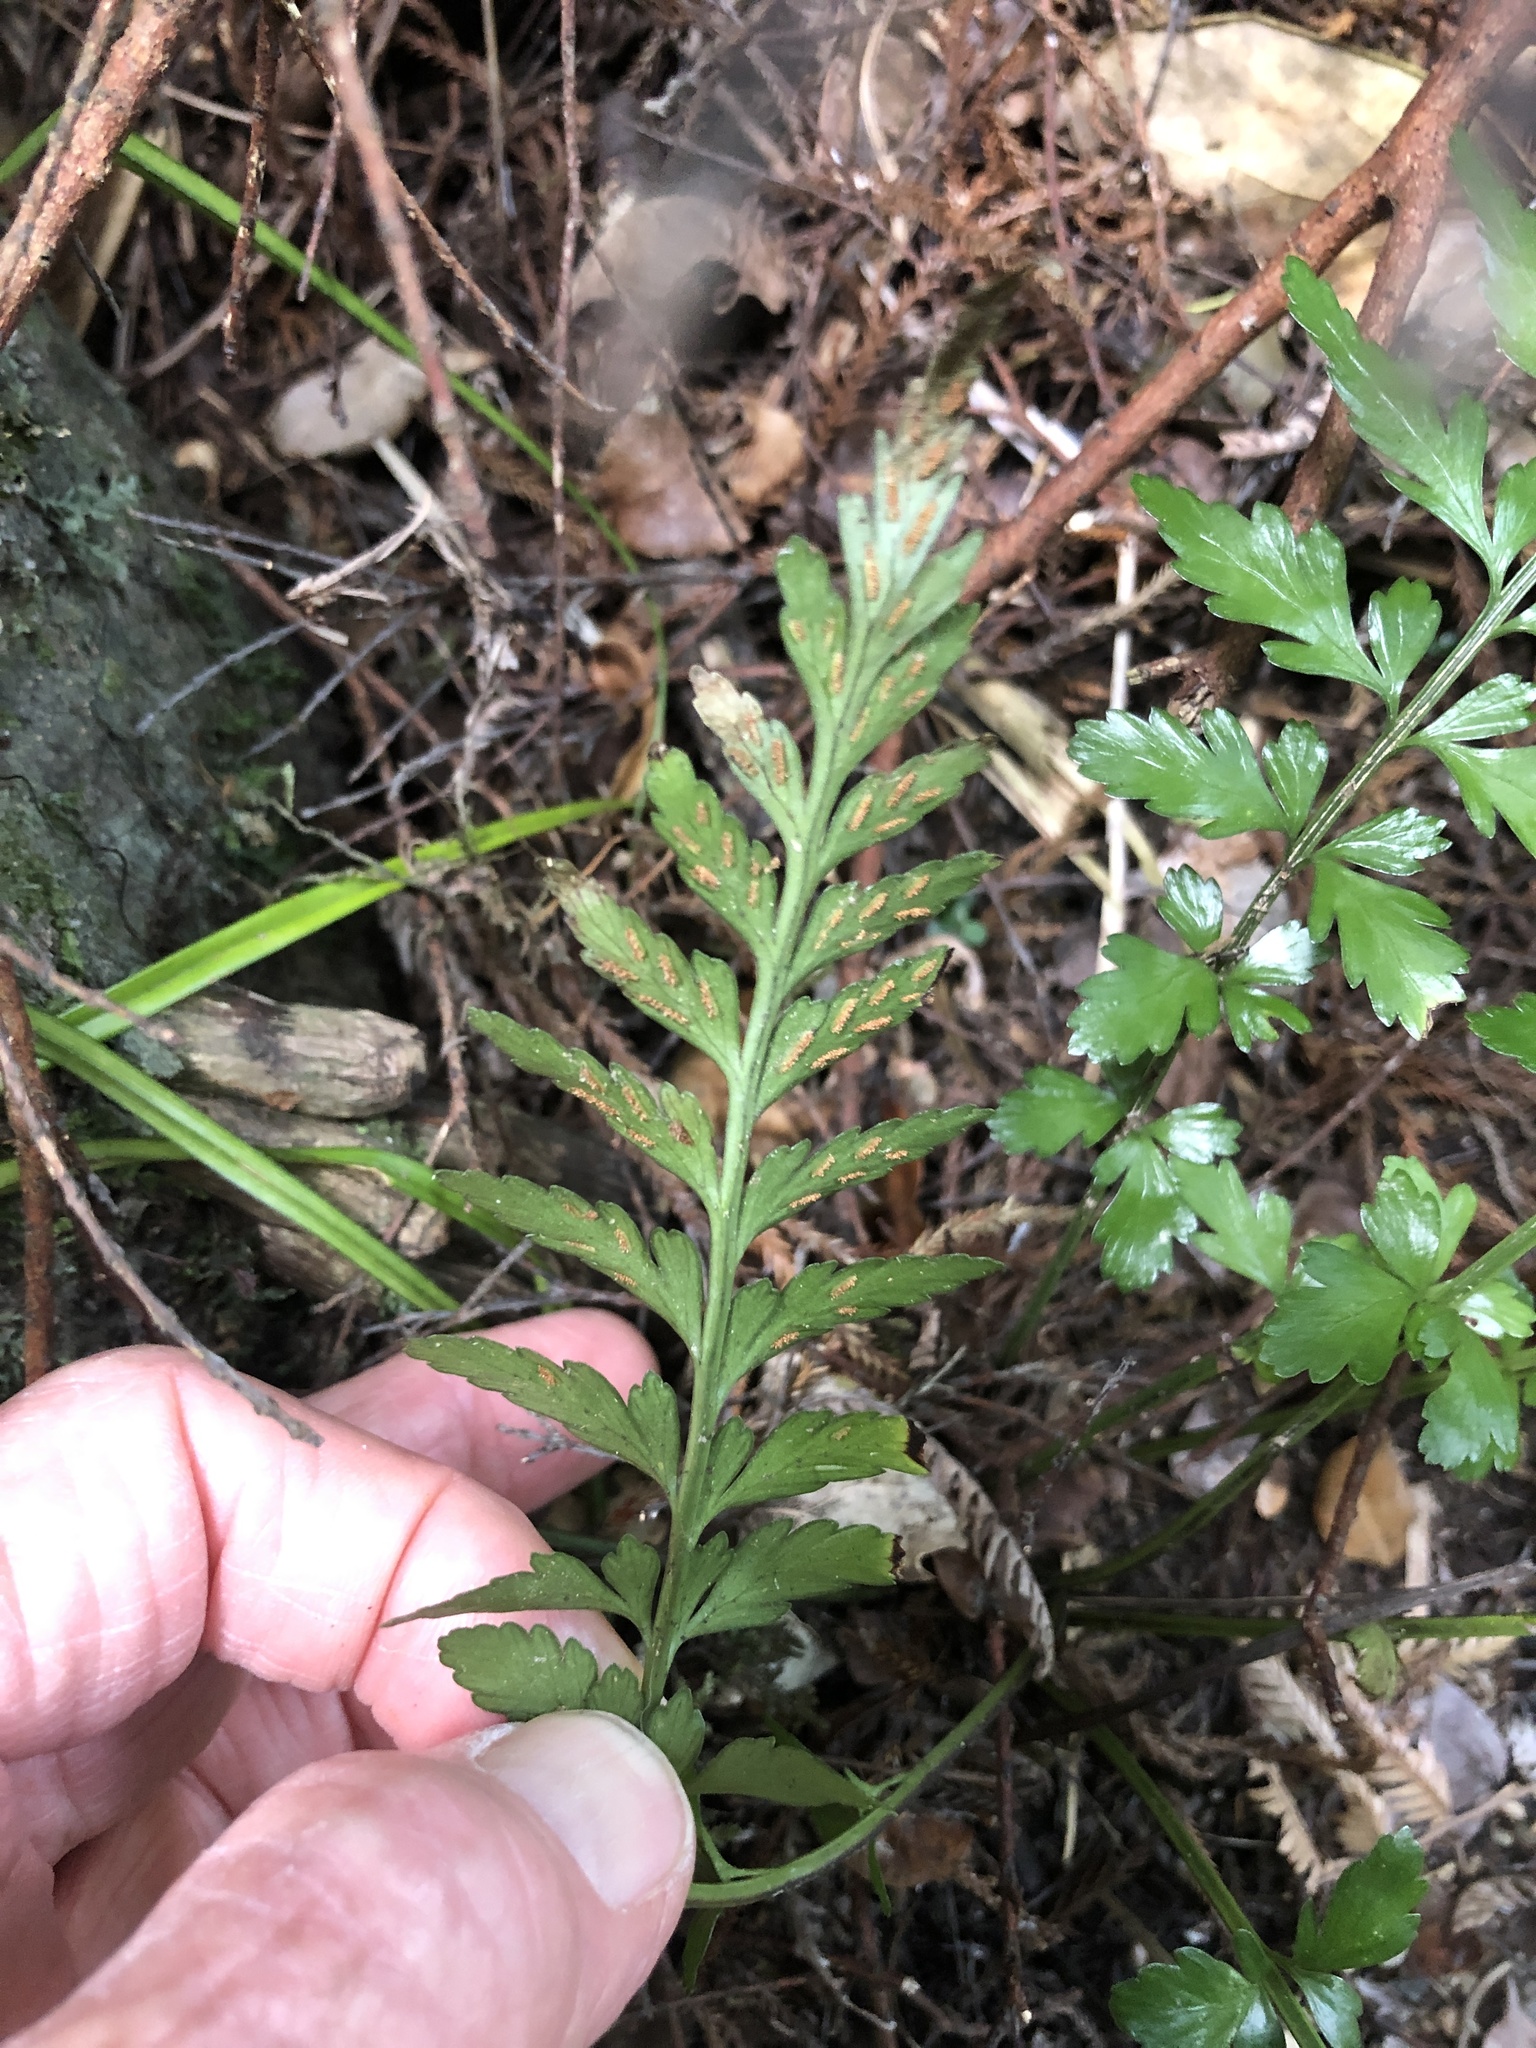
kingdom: Plantae
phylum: Tracheophyta
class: Polypodiopsida
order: Polypodiales
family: Aspleniaceae
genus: Asplenium
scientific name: Asplenium lamprophyllum
